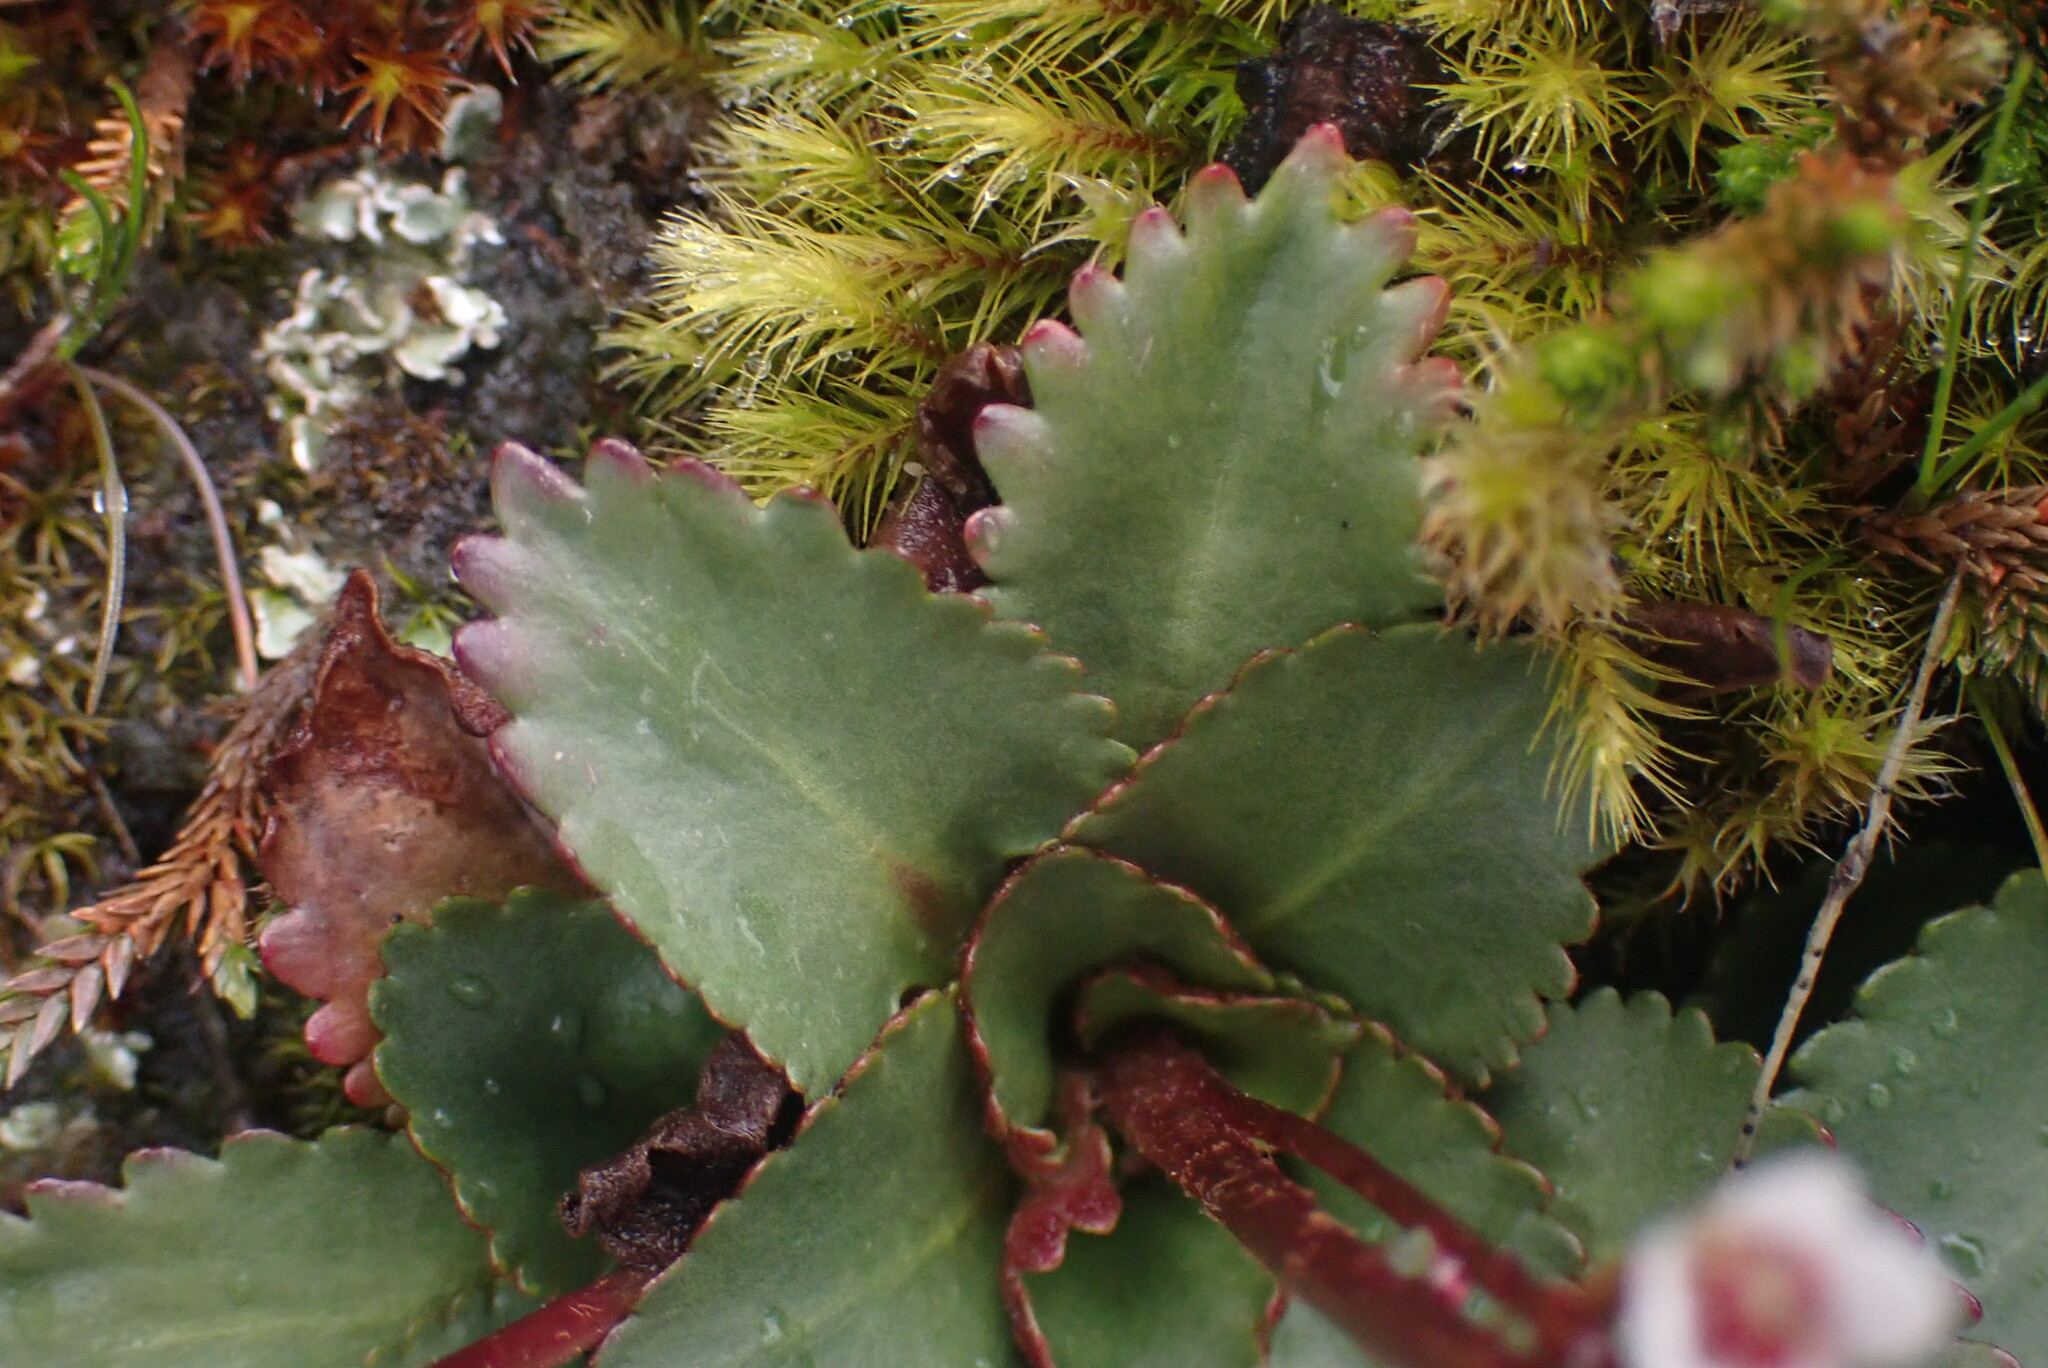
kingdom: Plantae
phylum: Tracheophyta
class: Magnoliopsida
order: Saxifragales
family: Saxifragaceae
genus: Micranthes
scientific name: Micranthes rufidula
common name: Rustyhair saxifrage
